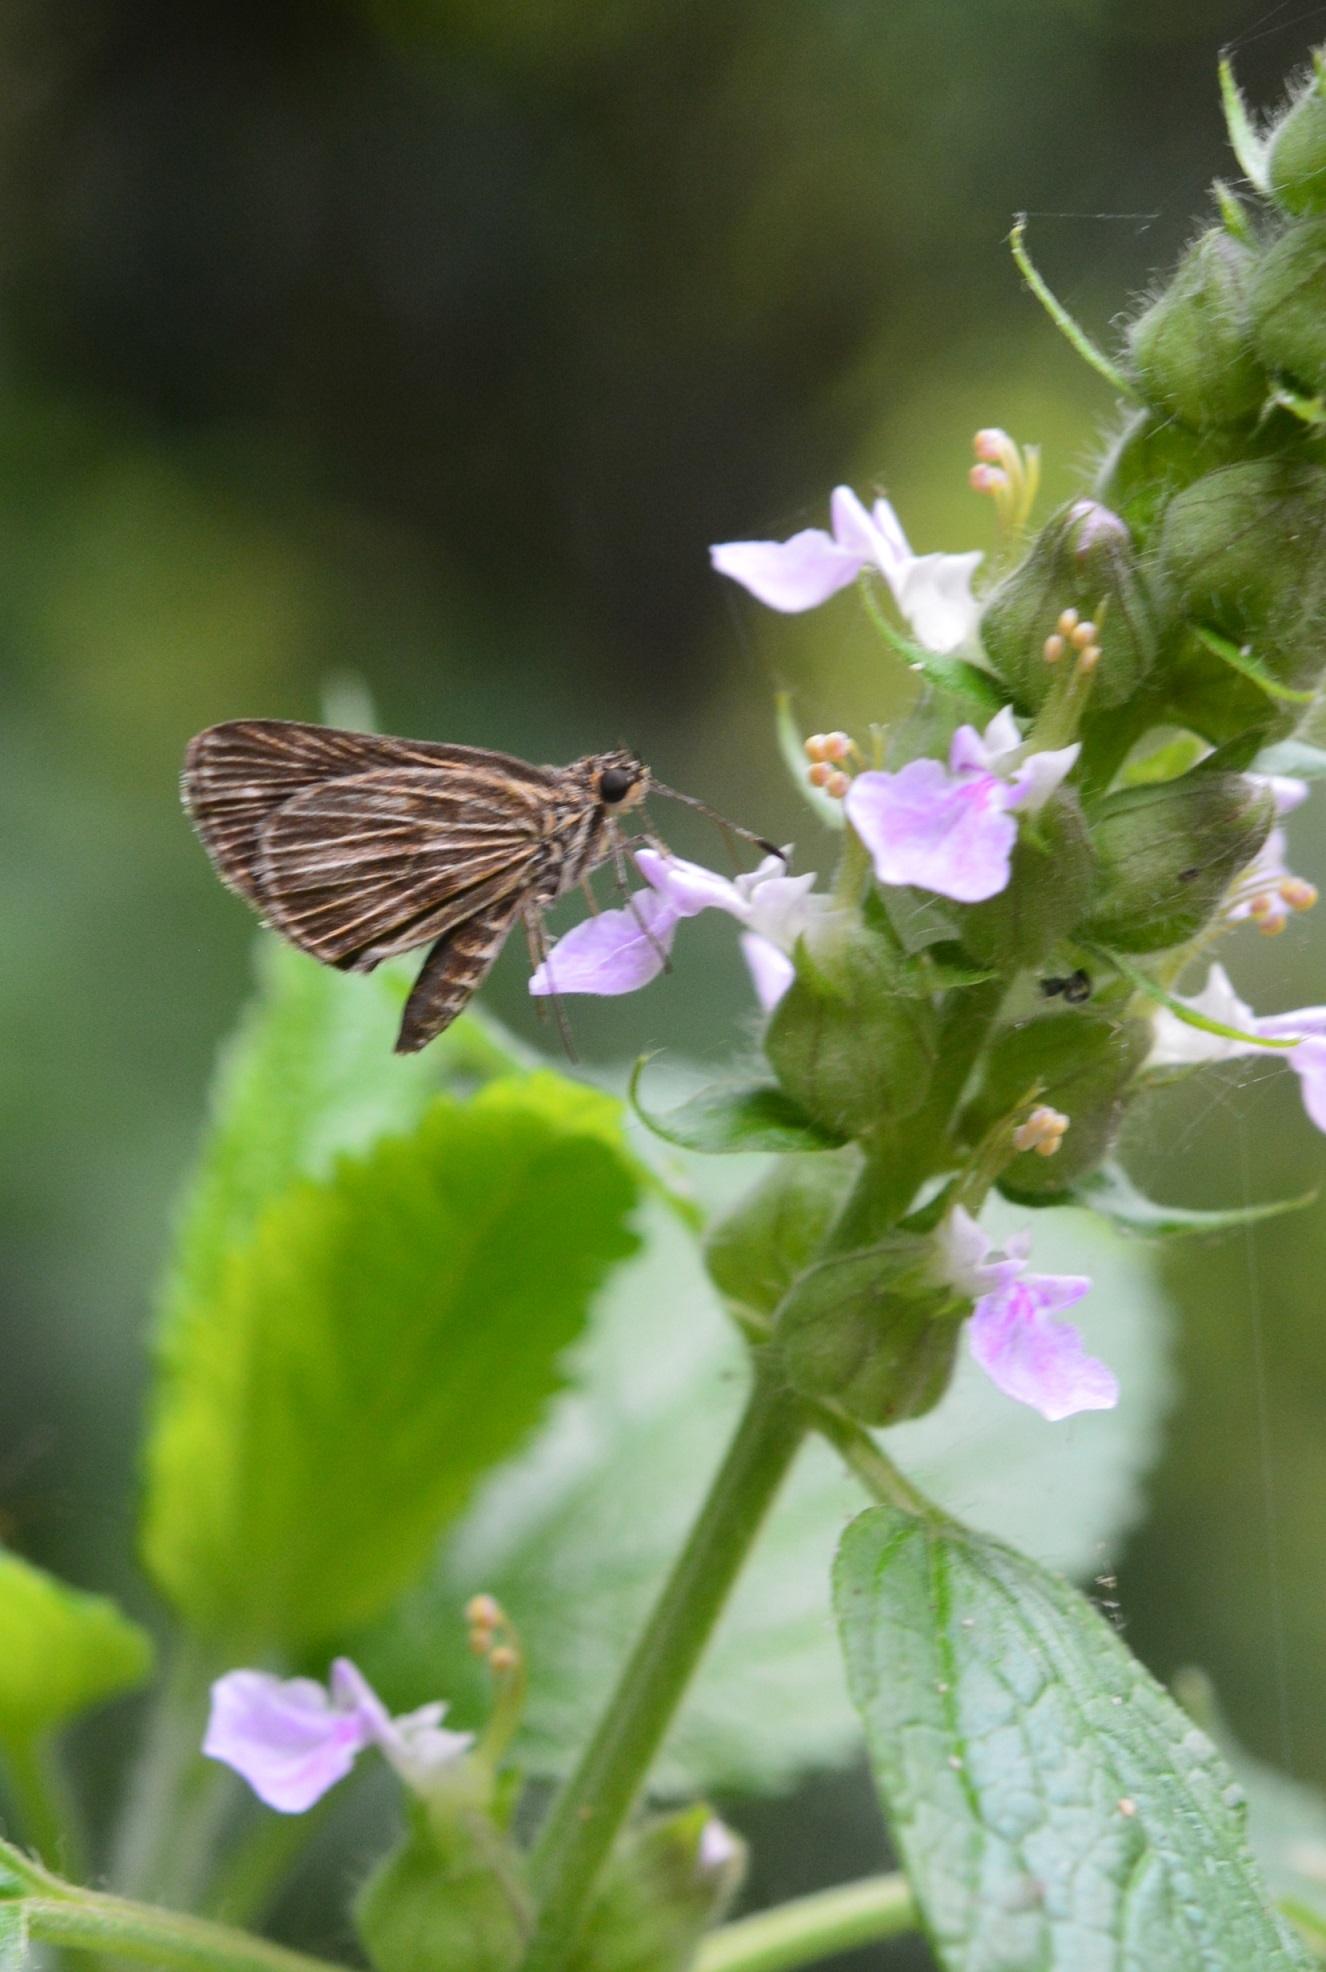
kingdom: Animalia
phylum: Arthropoda
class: Insecta
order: Lepidoptera
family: Hesperiidae
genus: Virga
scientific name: Virga virginius
